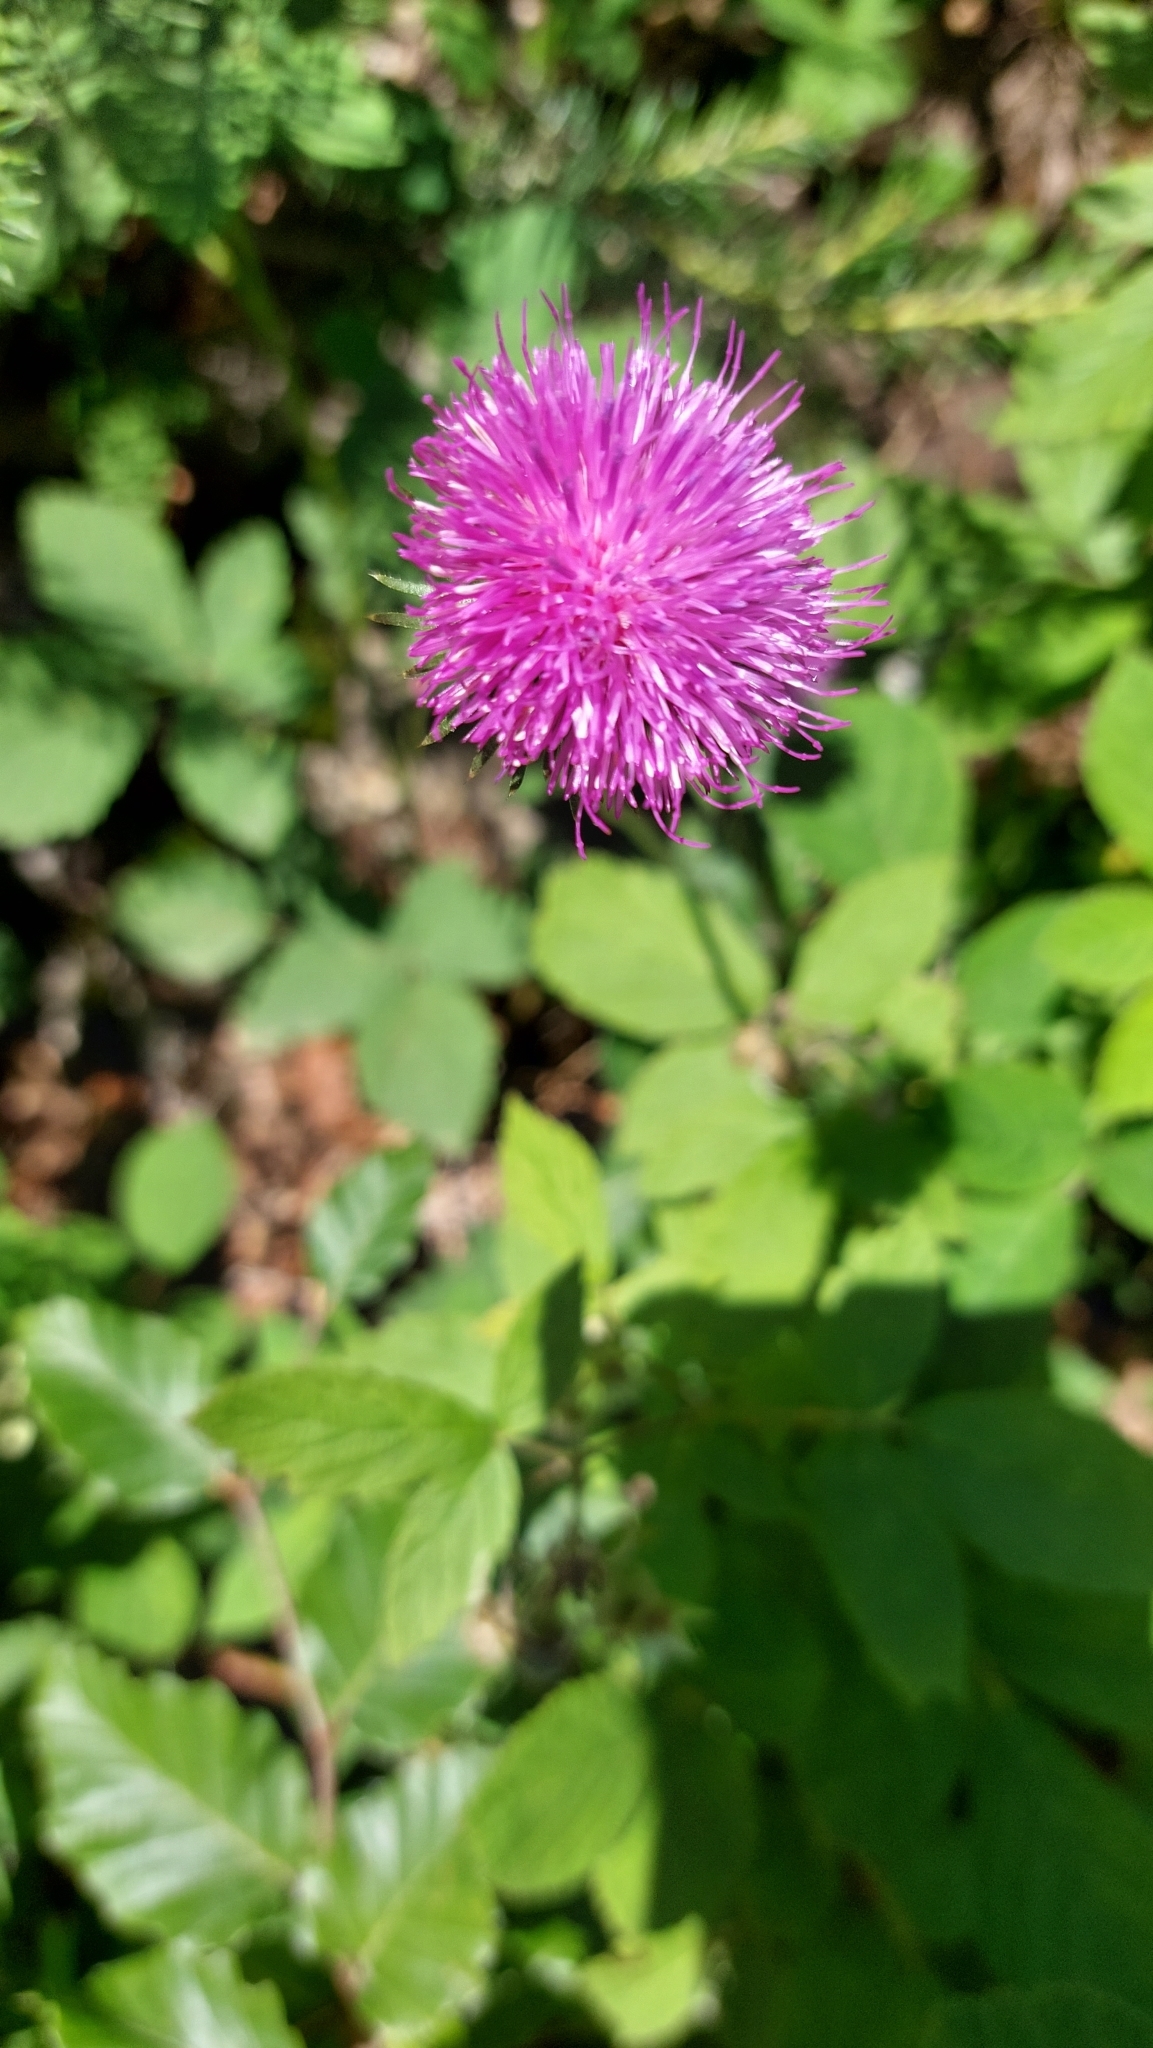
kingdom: Plantae
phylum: Tracheophyta
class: Magnoliopsida
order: Asterales
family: Asteraceae
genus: Carduus
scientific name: Carduus defloratus
